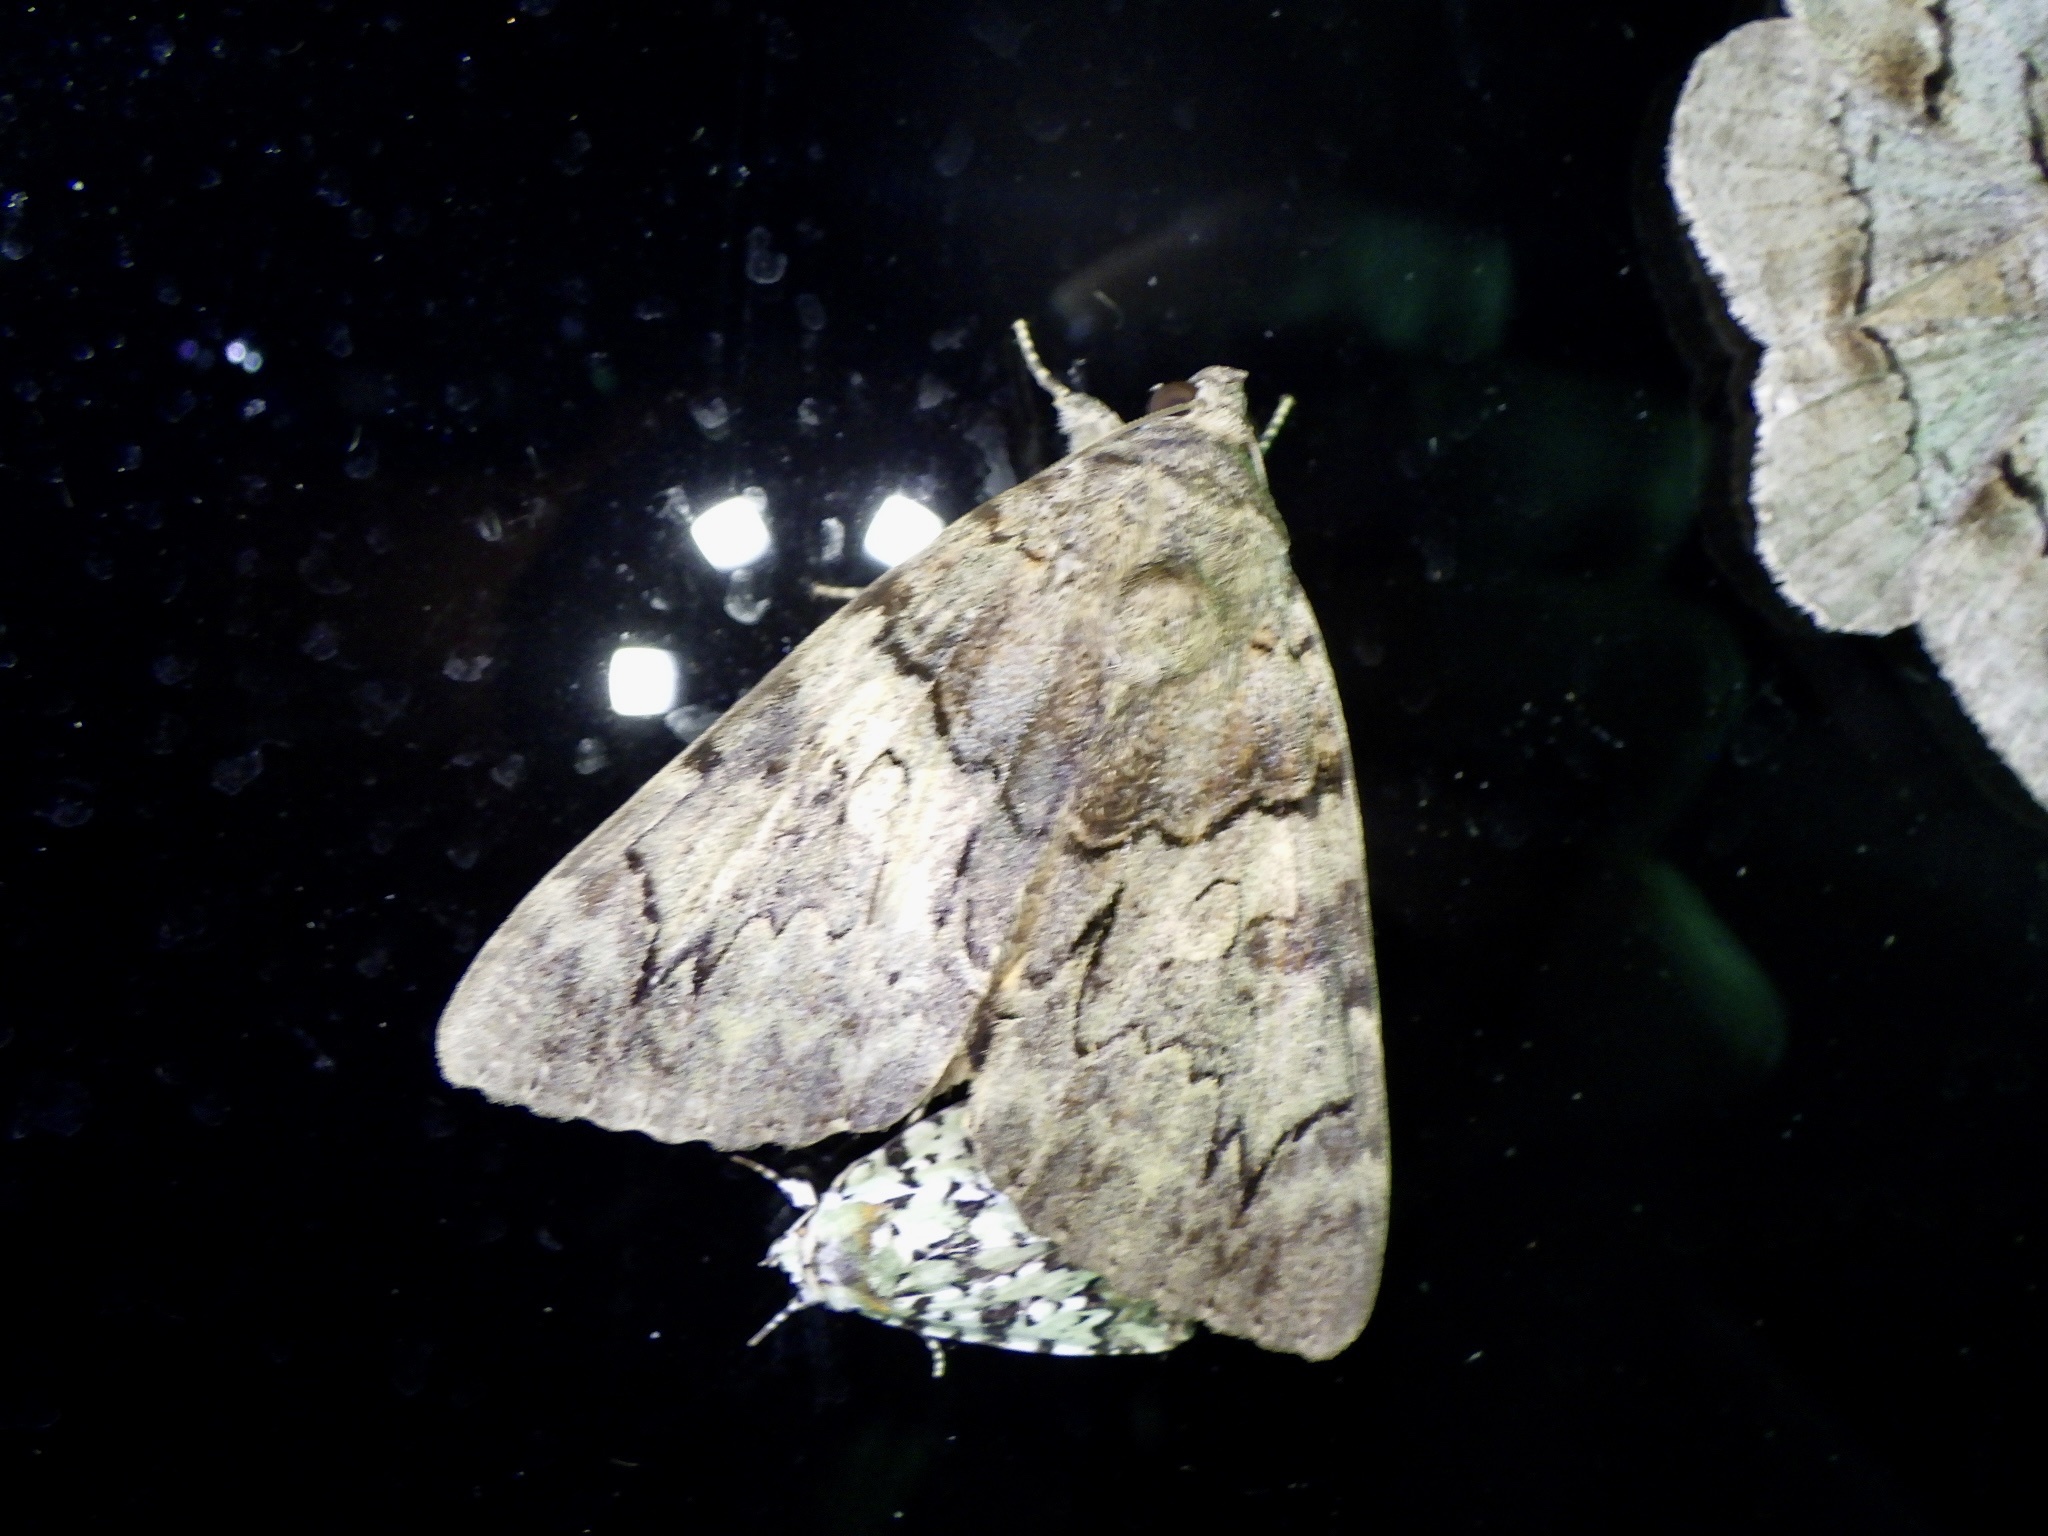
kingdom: Animalia
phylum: Arthropoda
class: Insecta
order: Lepidoptera
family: Erebidae
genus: Catocala
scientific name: Catocala patala
